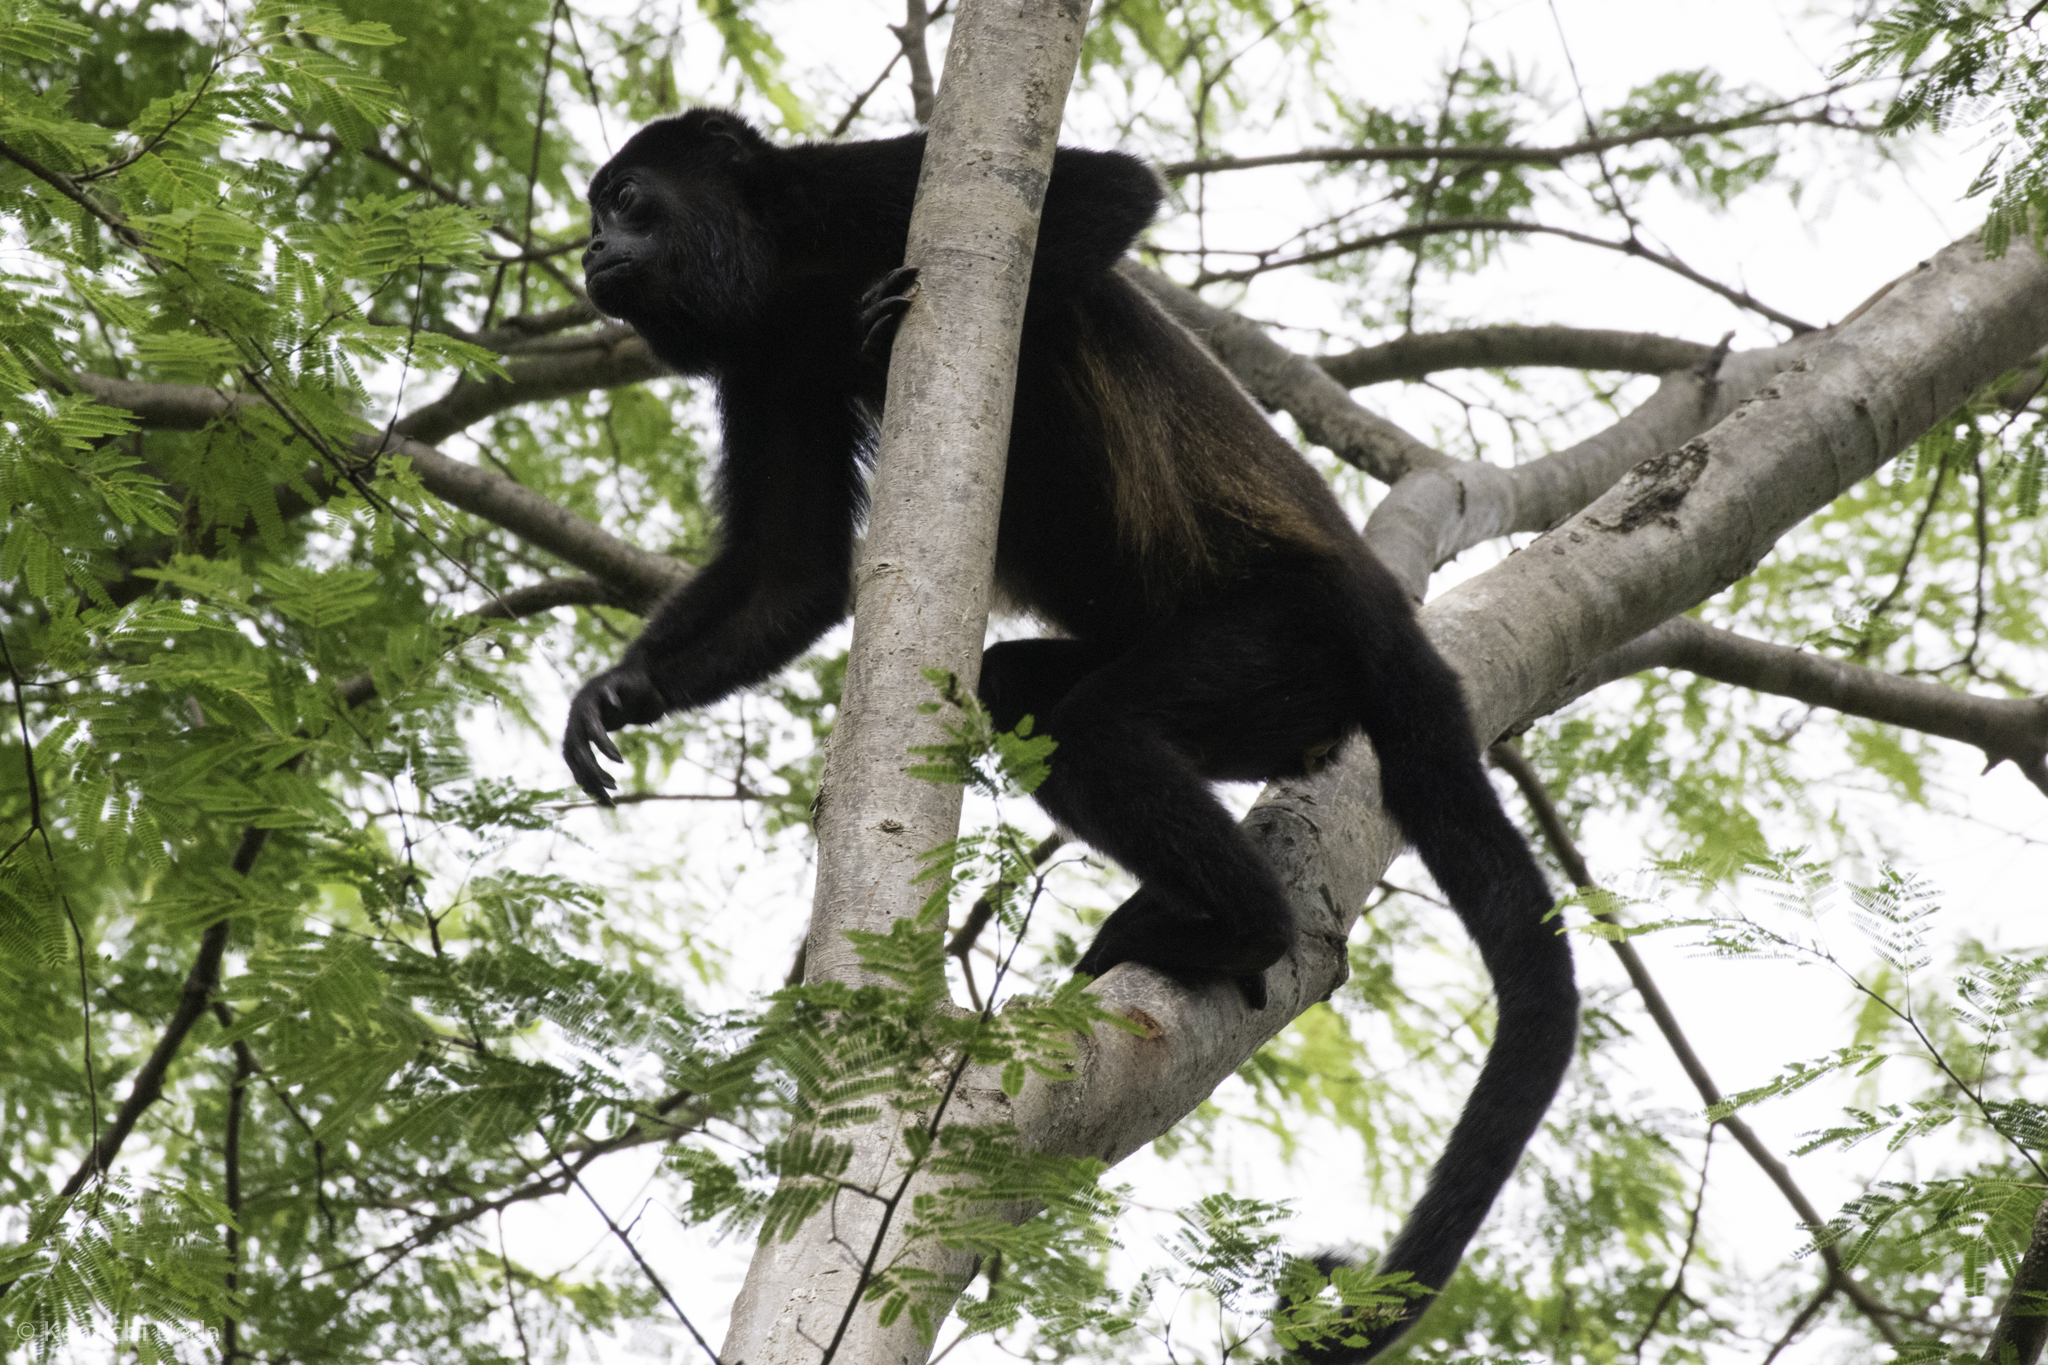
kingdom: Animalia
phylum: Chordata
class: Mammalia
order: Primates
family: Atelidae
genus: Alouatta
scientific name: Alouatta palliata
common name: Mantled howler
